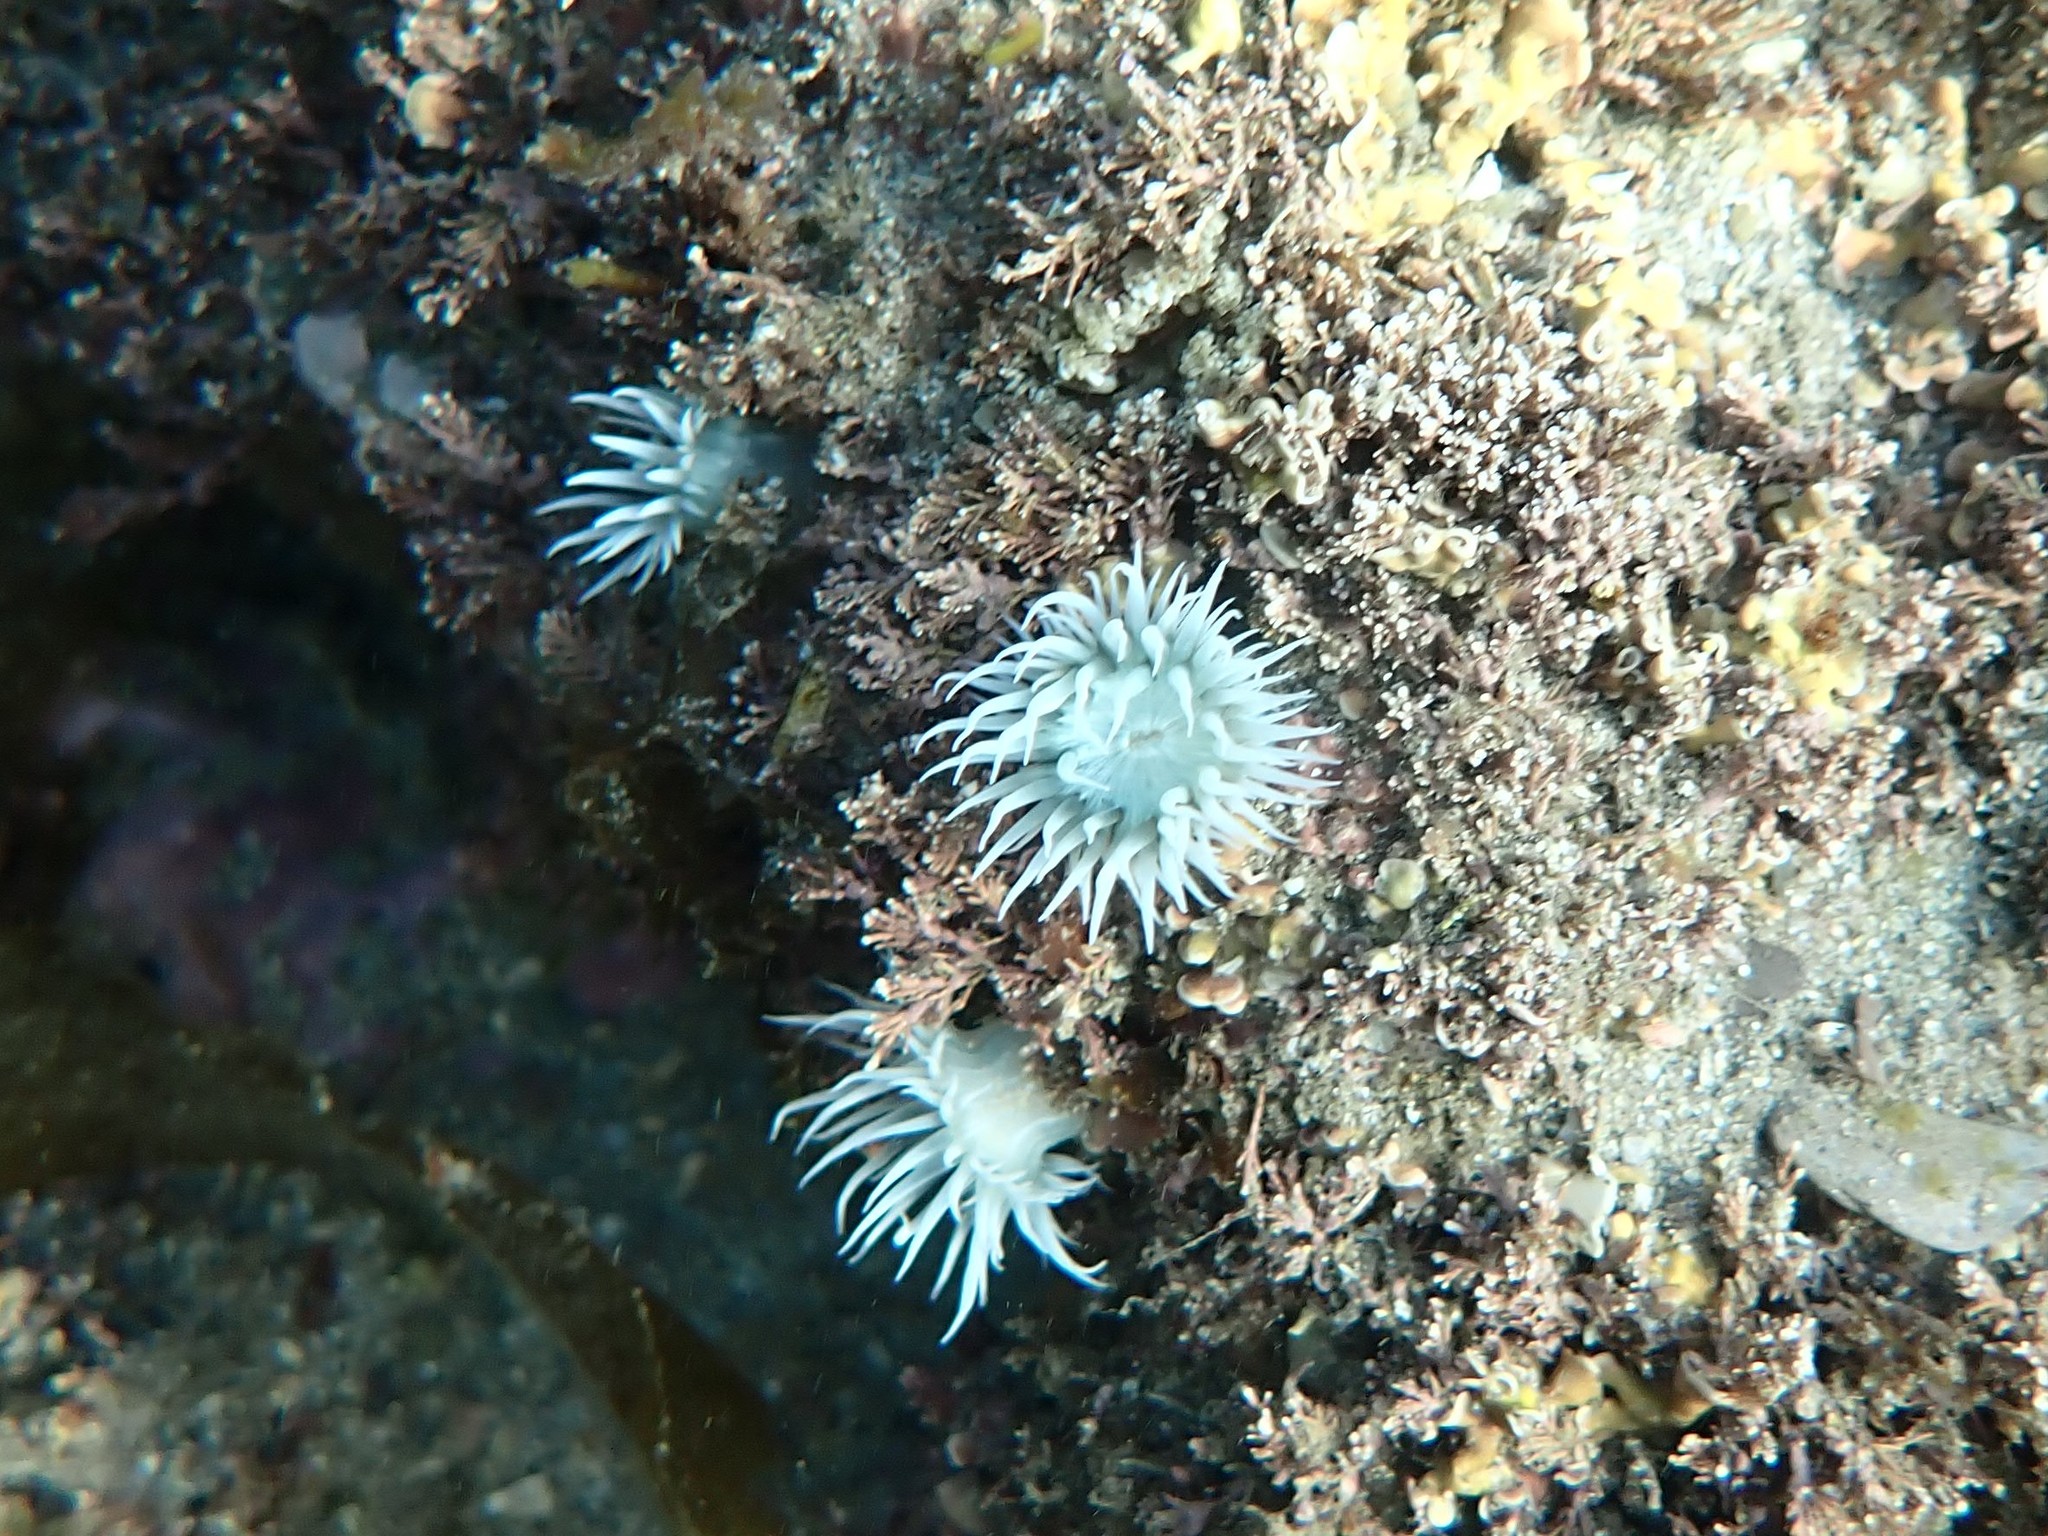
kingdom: Animalia
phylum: Cnidaria
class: Anthozoa
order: Actiniaria
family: Sagartiidae
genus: Actinothoe
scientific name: Actinothoe sphyrodeta
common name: Sandalled anemone
